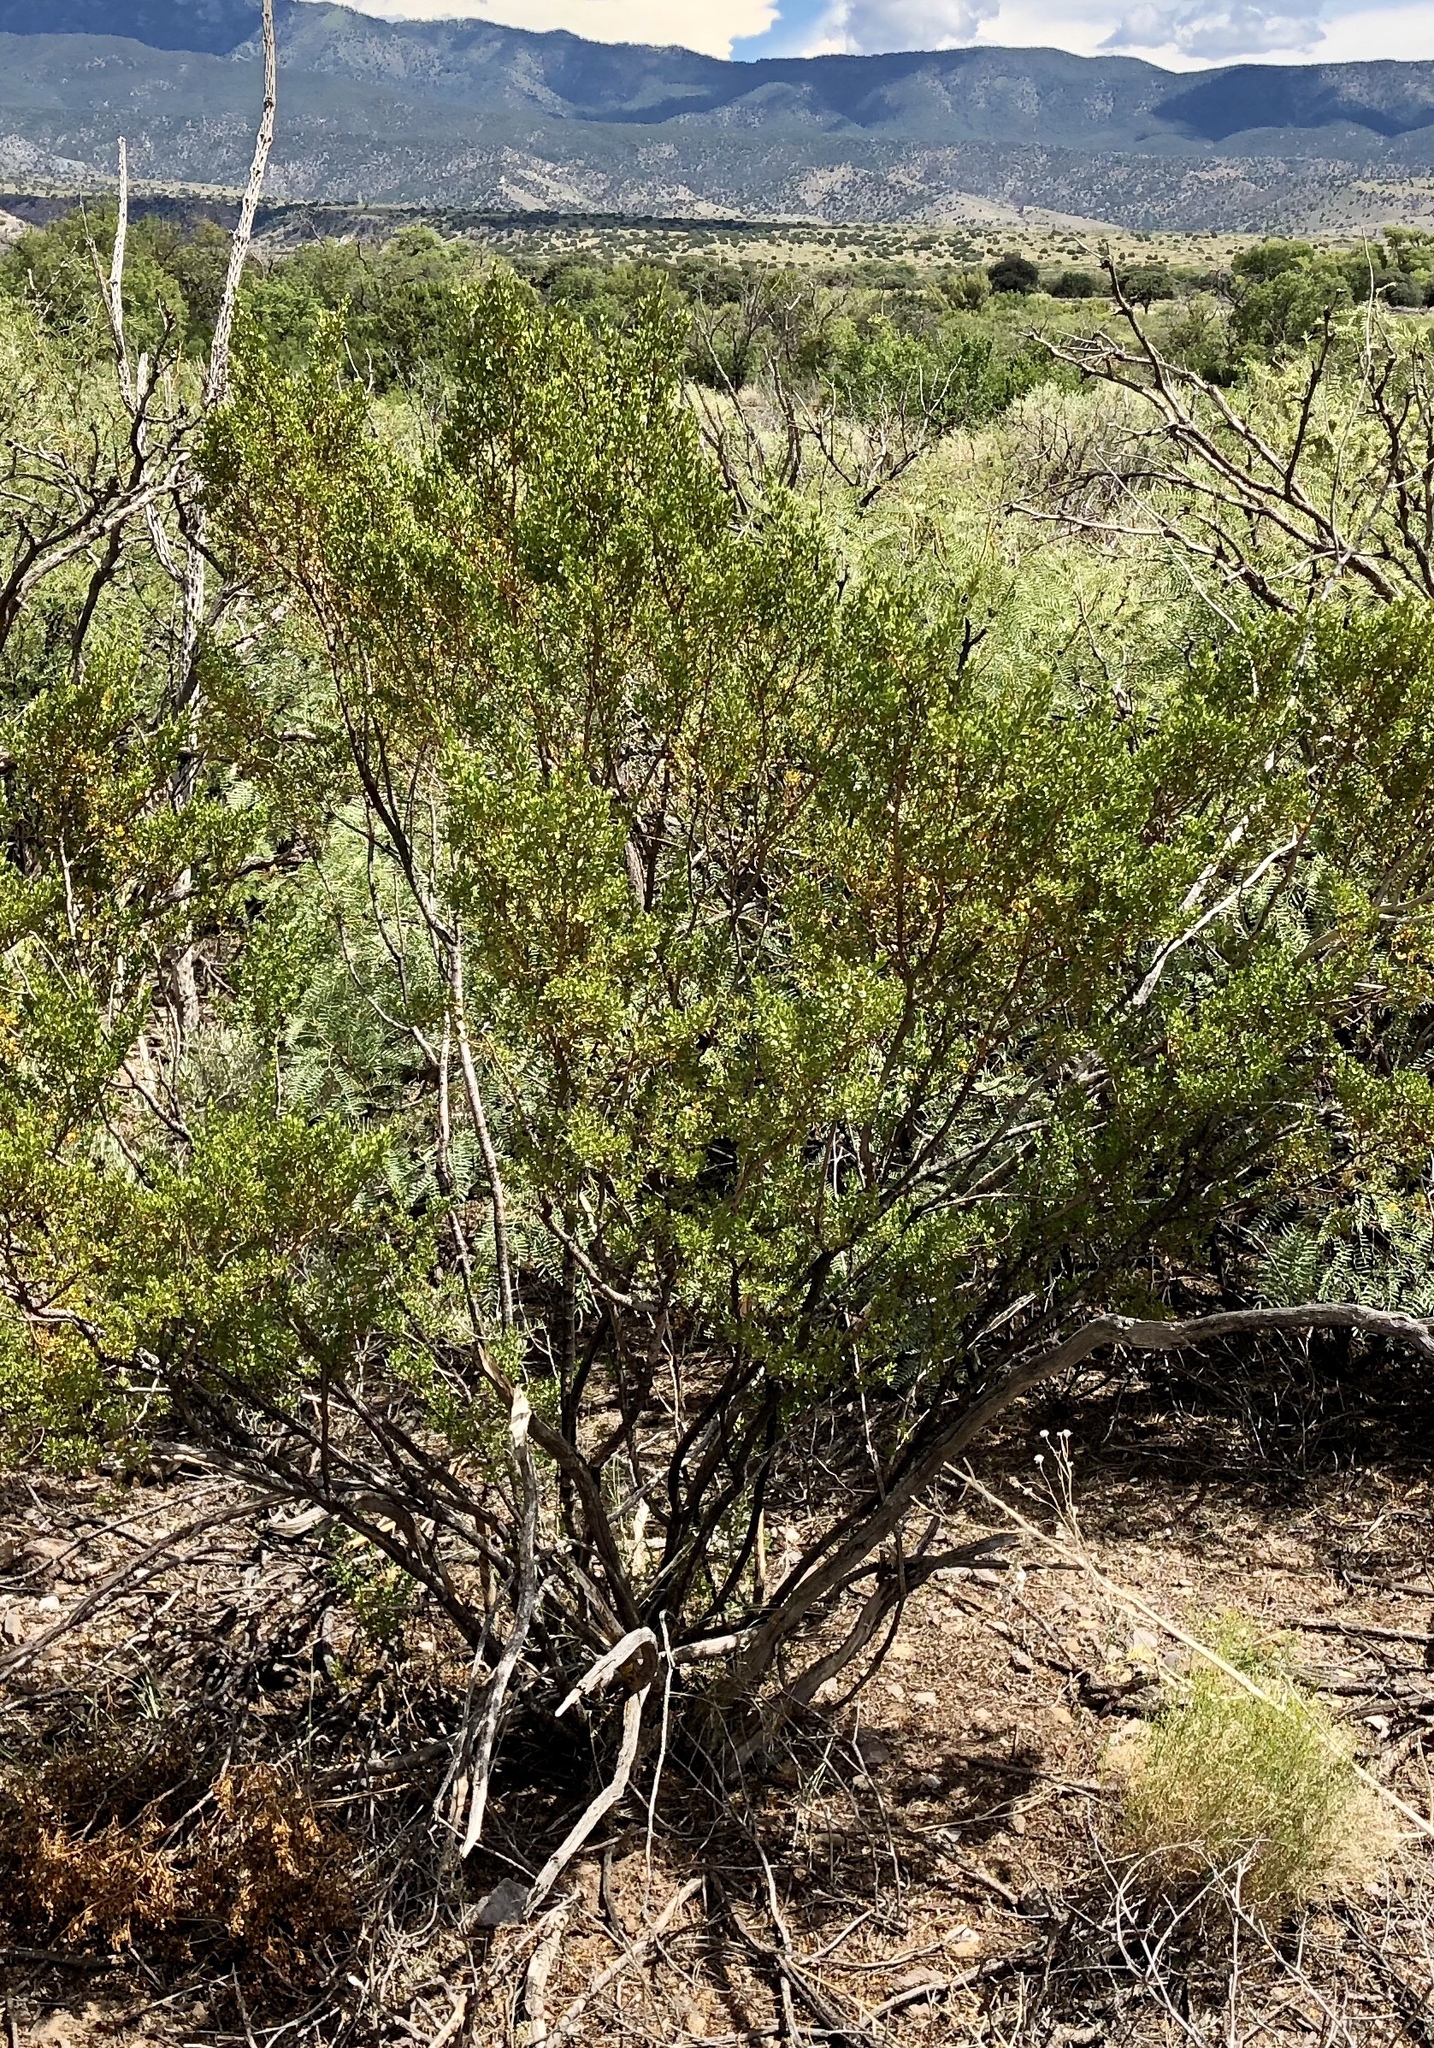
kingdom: Plantae
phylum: Tracheophyta
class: Magnoliopsida
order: Zygophyllales
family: Zygophyllaceae
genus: Larrea
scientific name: Larrea tridentata
